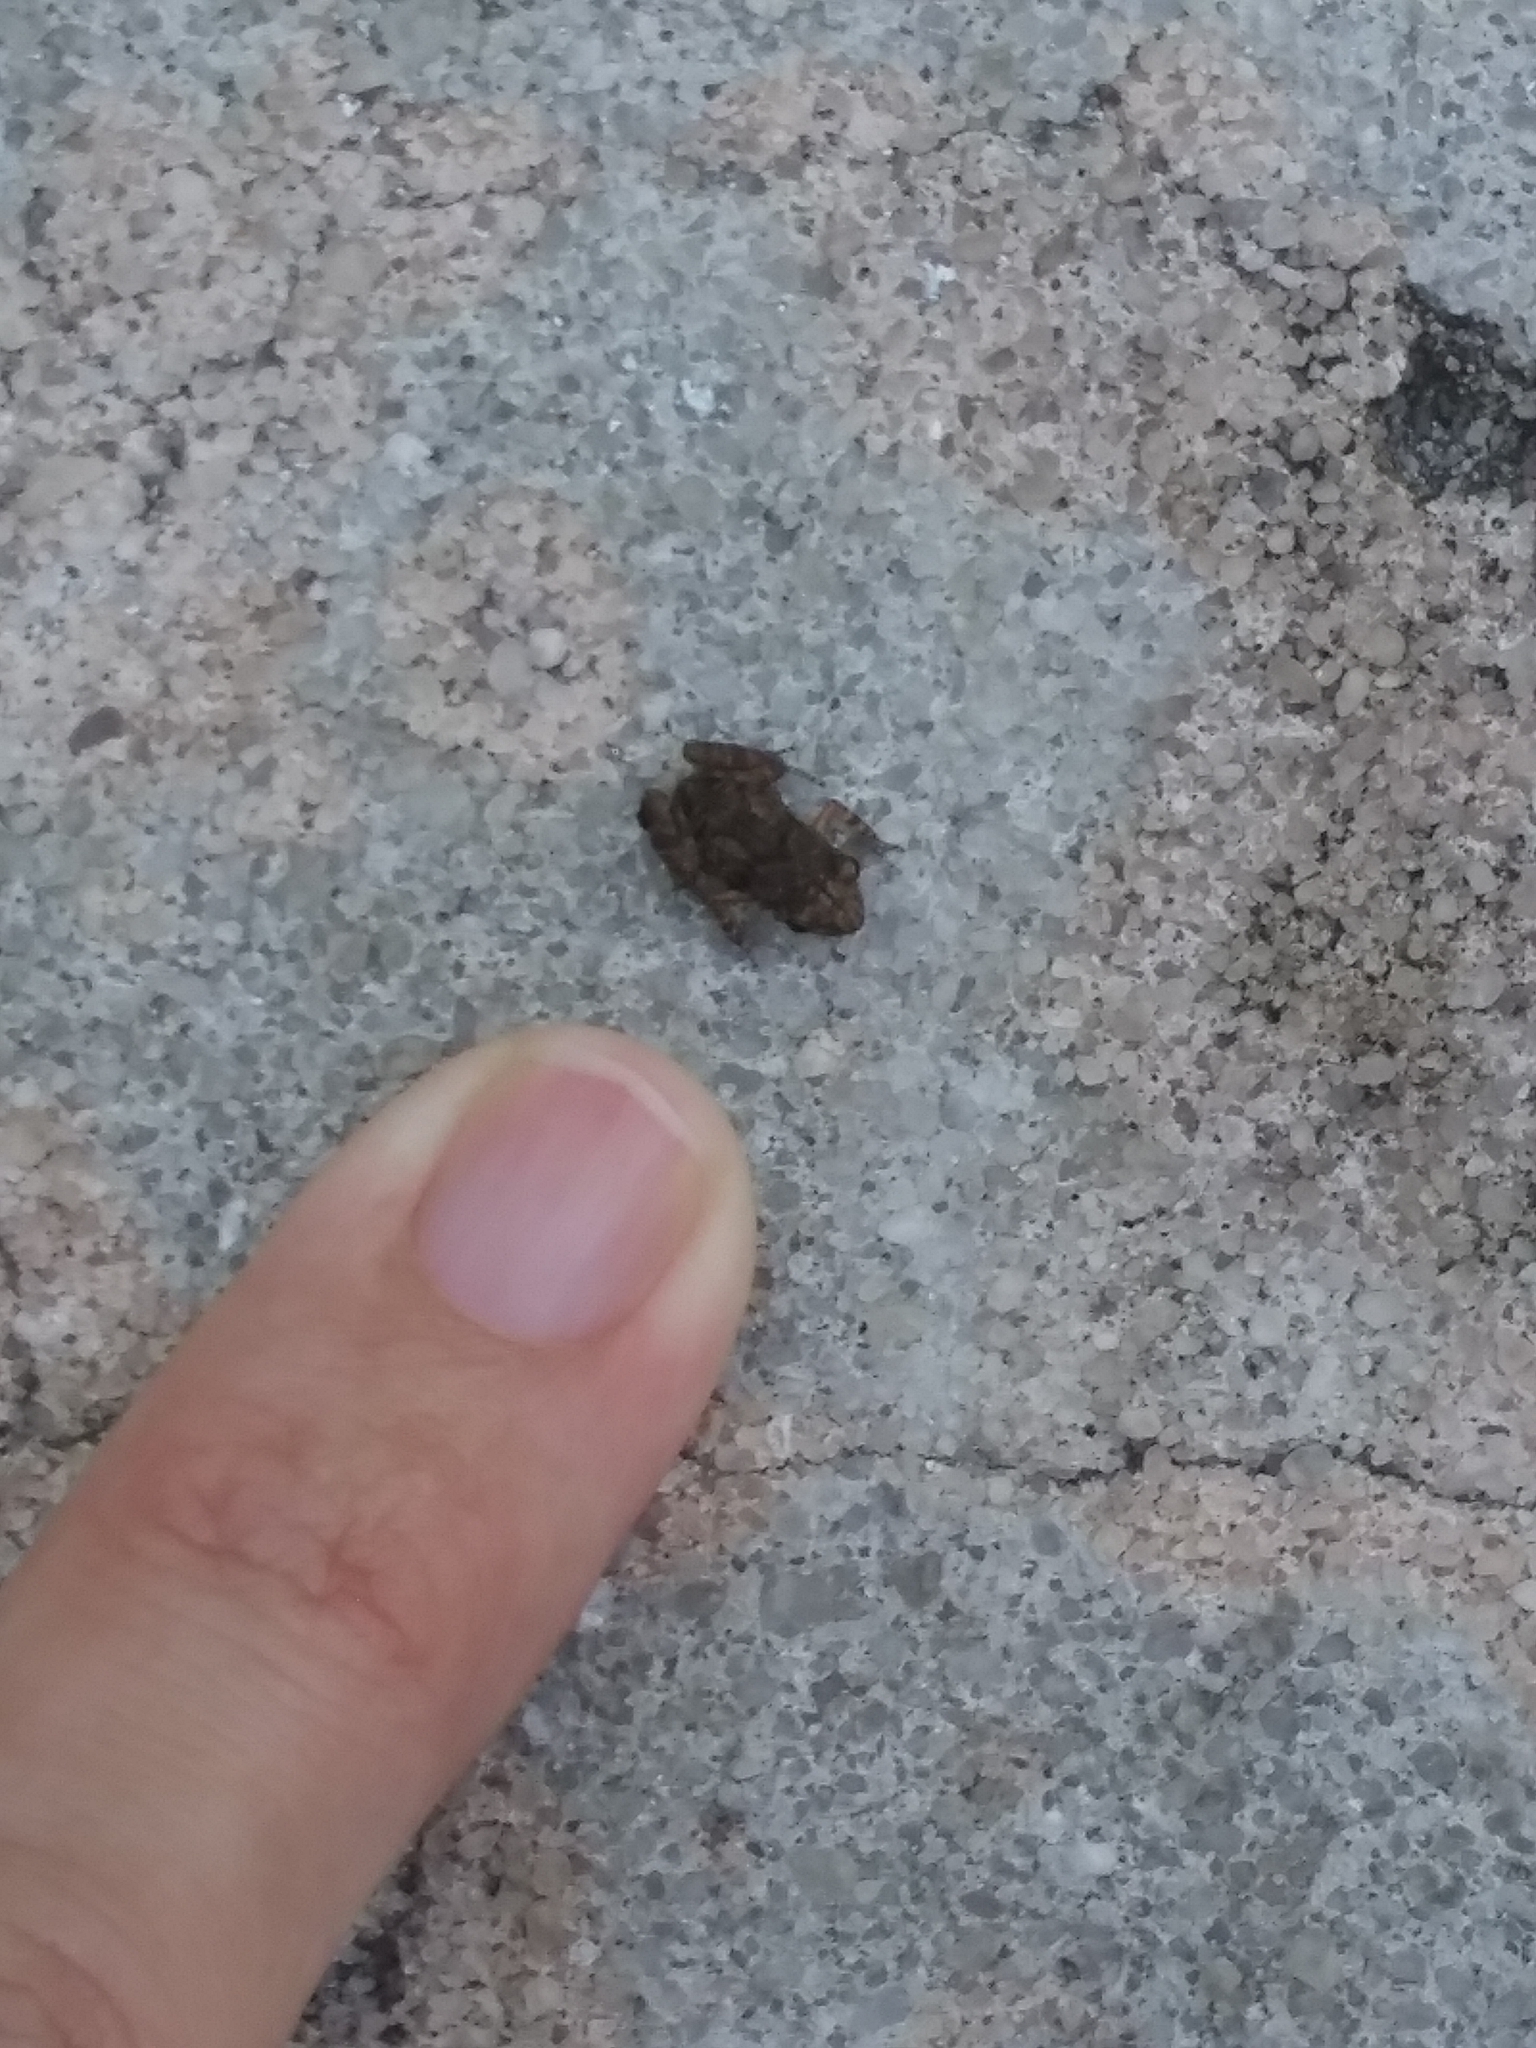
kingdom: Animalia
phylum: Chordata
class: Amphibia
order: Anura
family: Eleutherodactylidae
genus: Eleutherodactylus
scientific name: Eleutherodactylus planirostris
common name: Greenhouse frog
